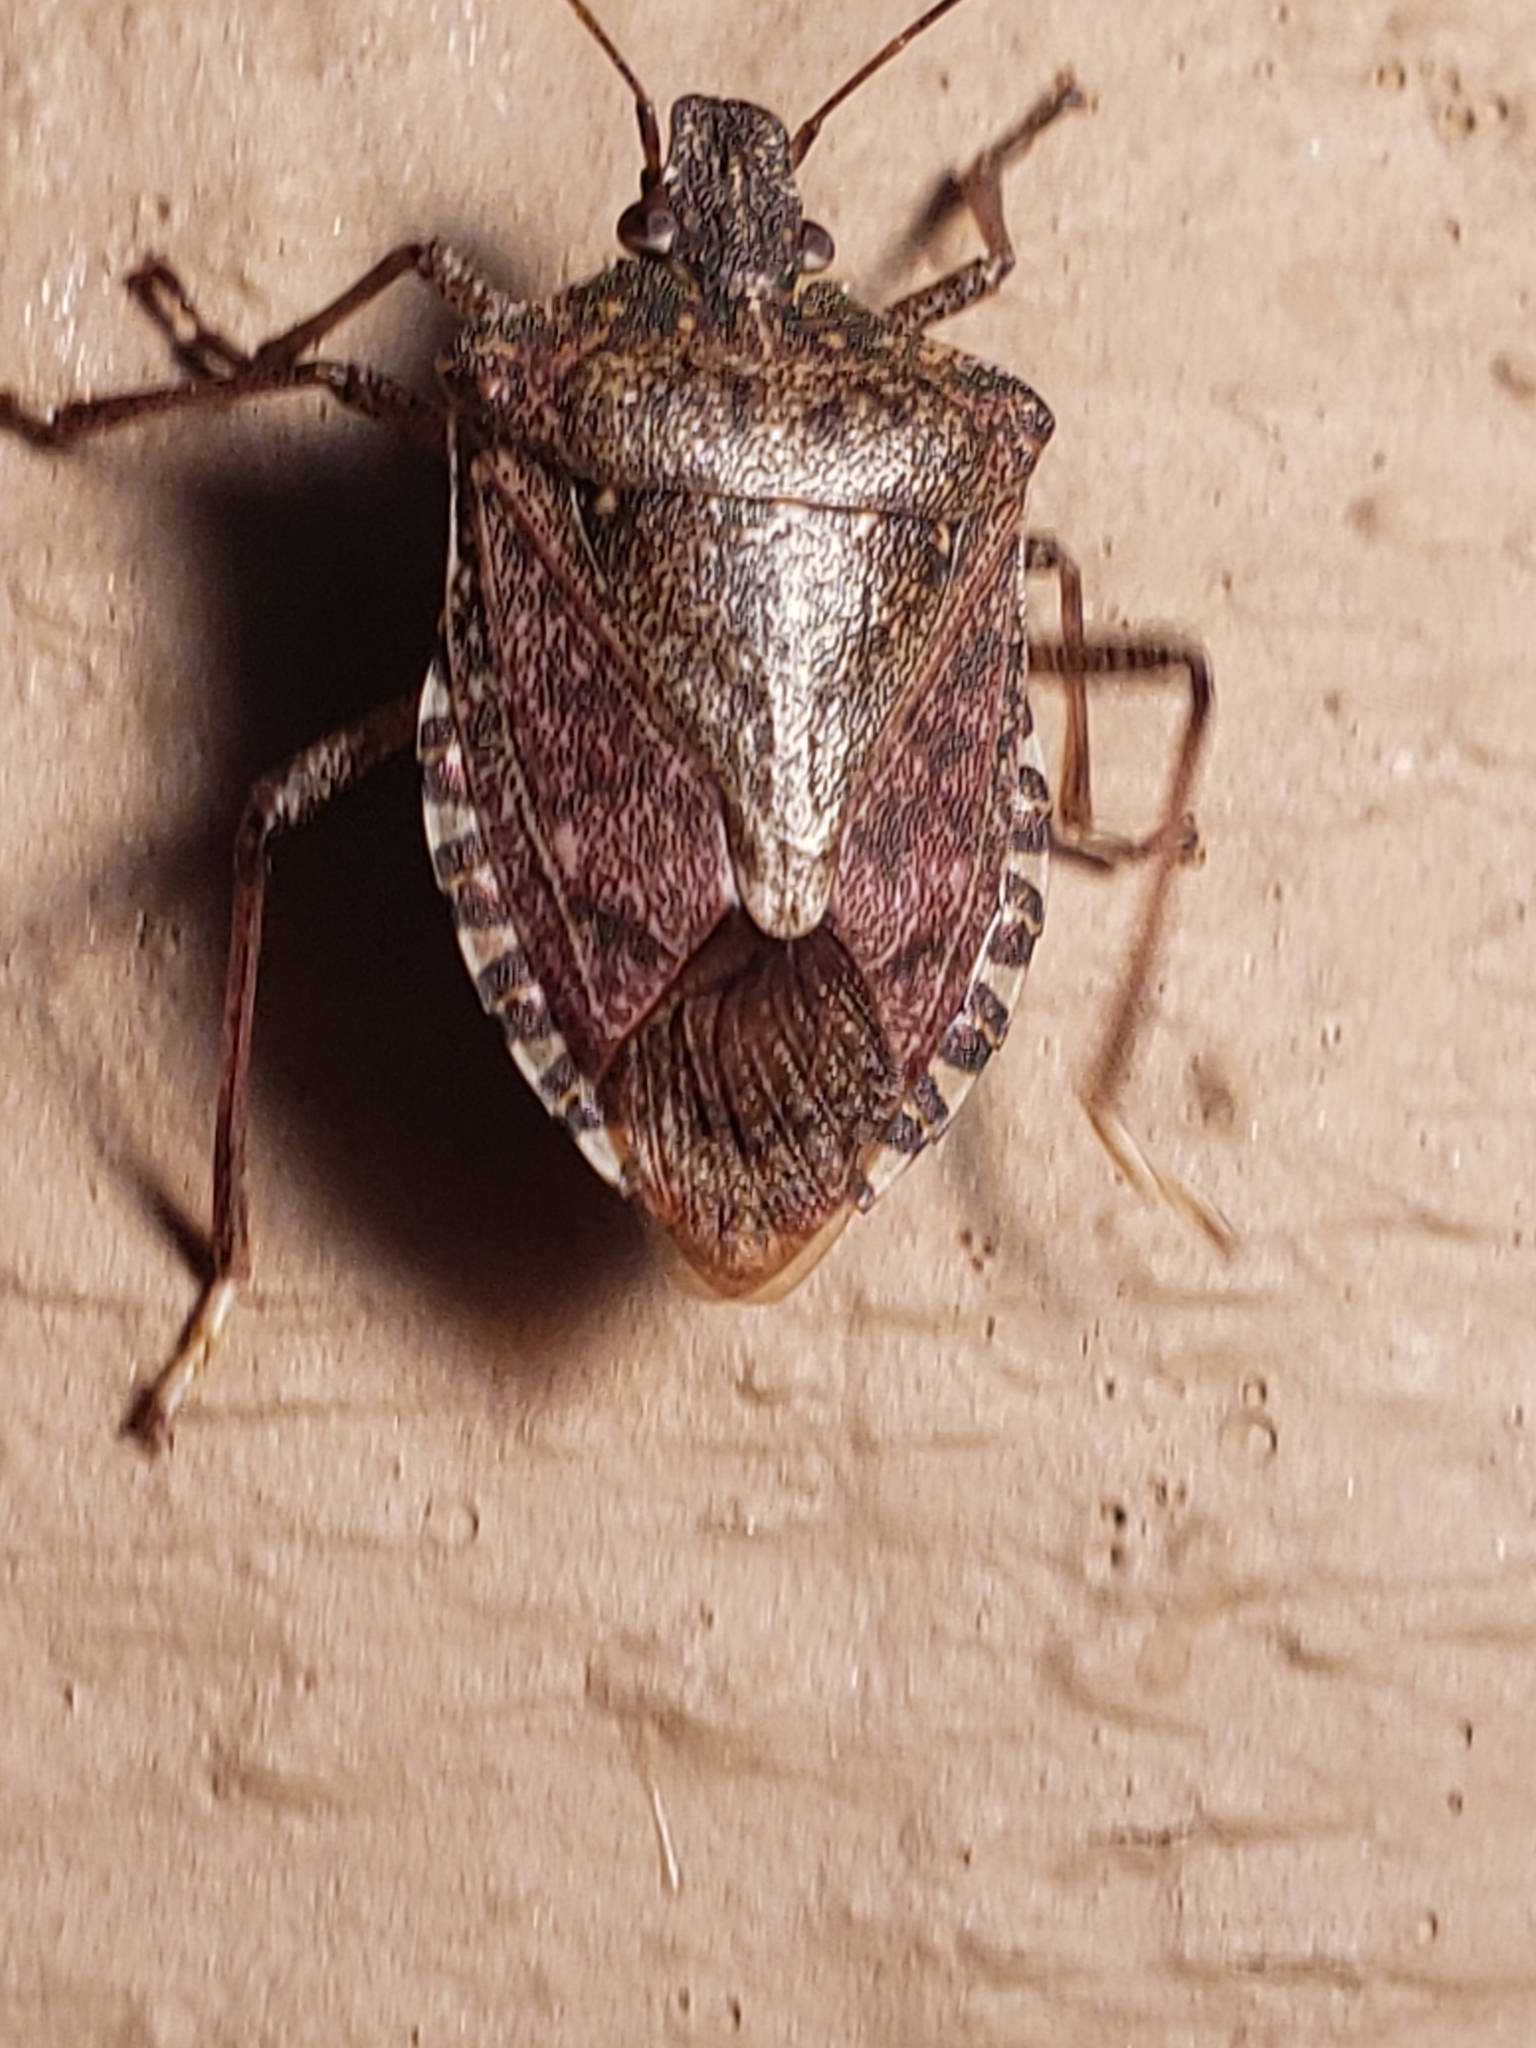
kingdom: Animalia
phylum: Arthropoda
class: Insecta
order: Hemiptera
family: Pentatomidae
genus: Halyomorpha
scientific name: Halyomorpha halys
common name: Brown marmorated stink bug
